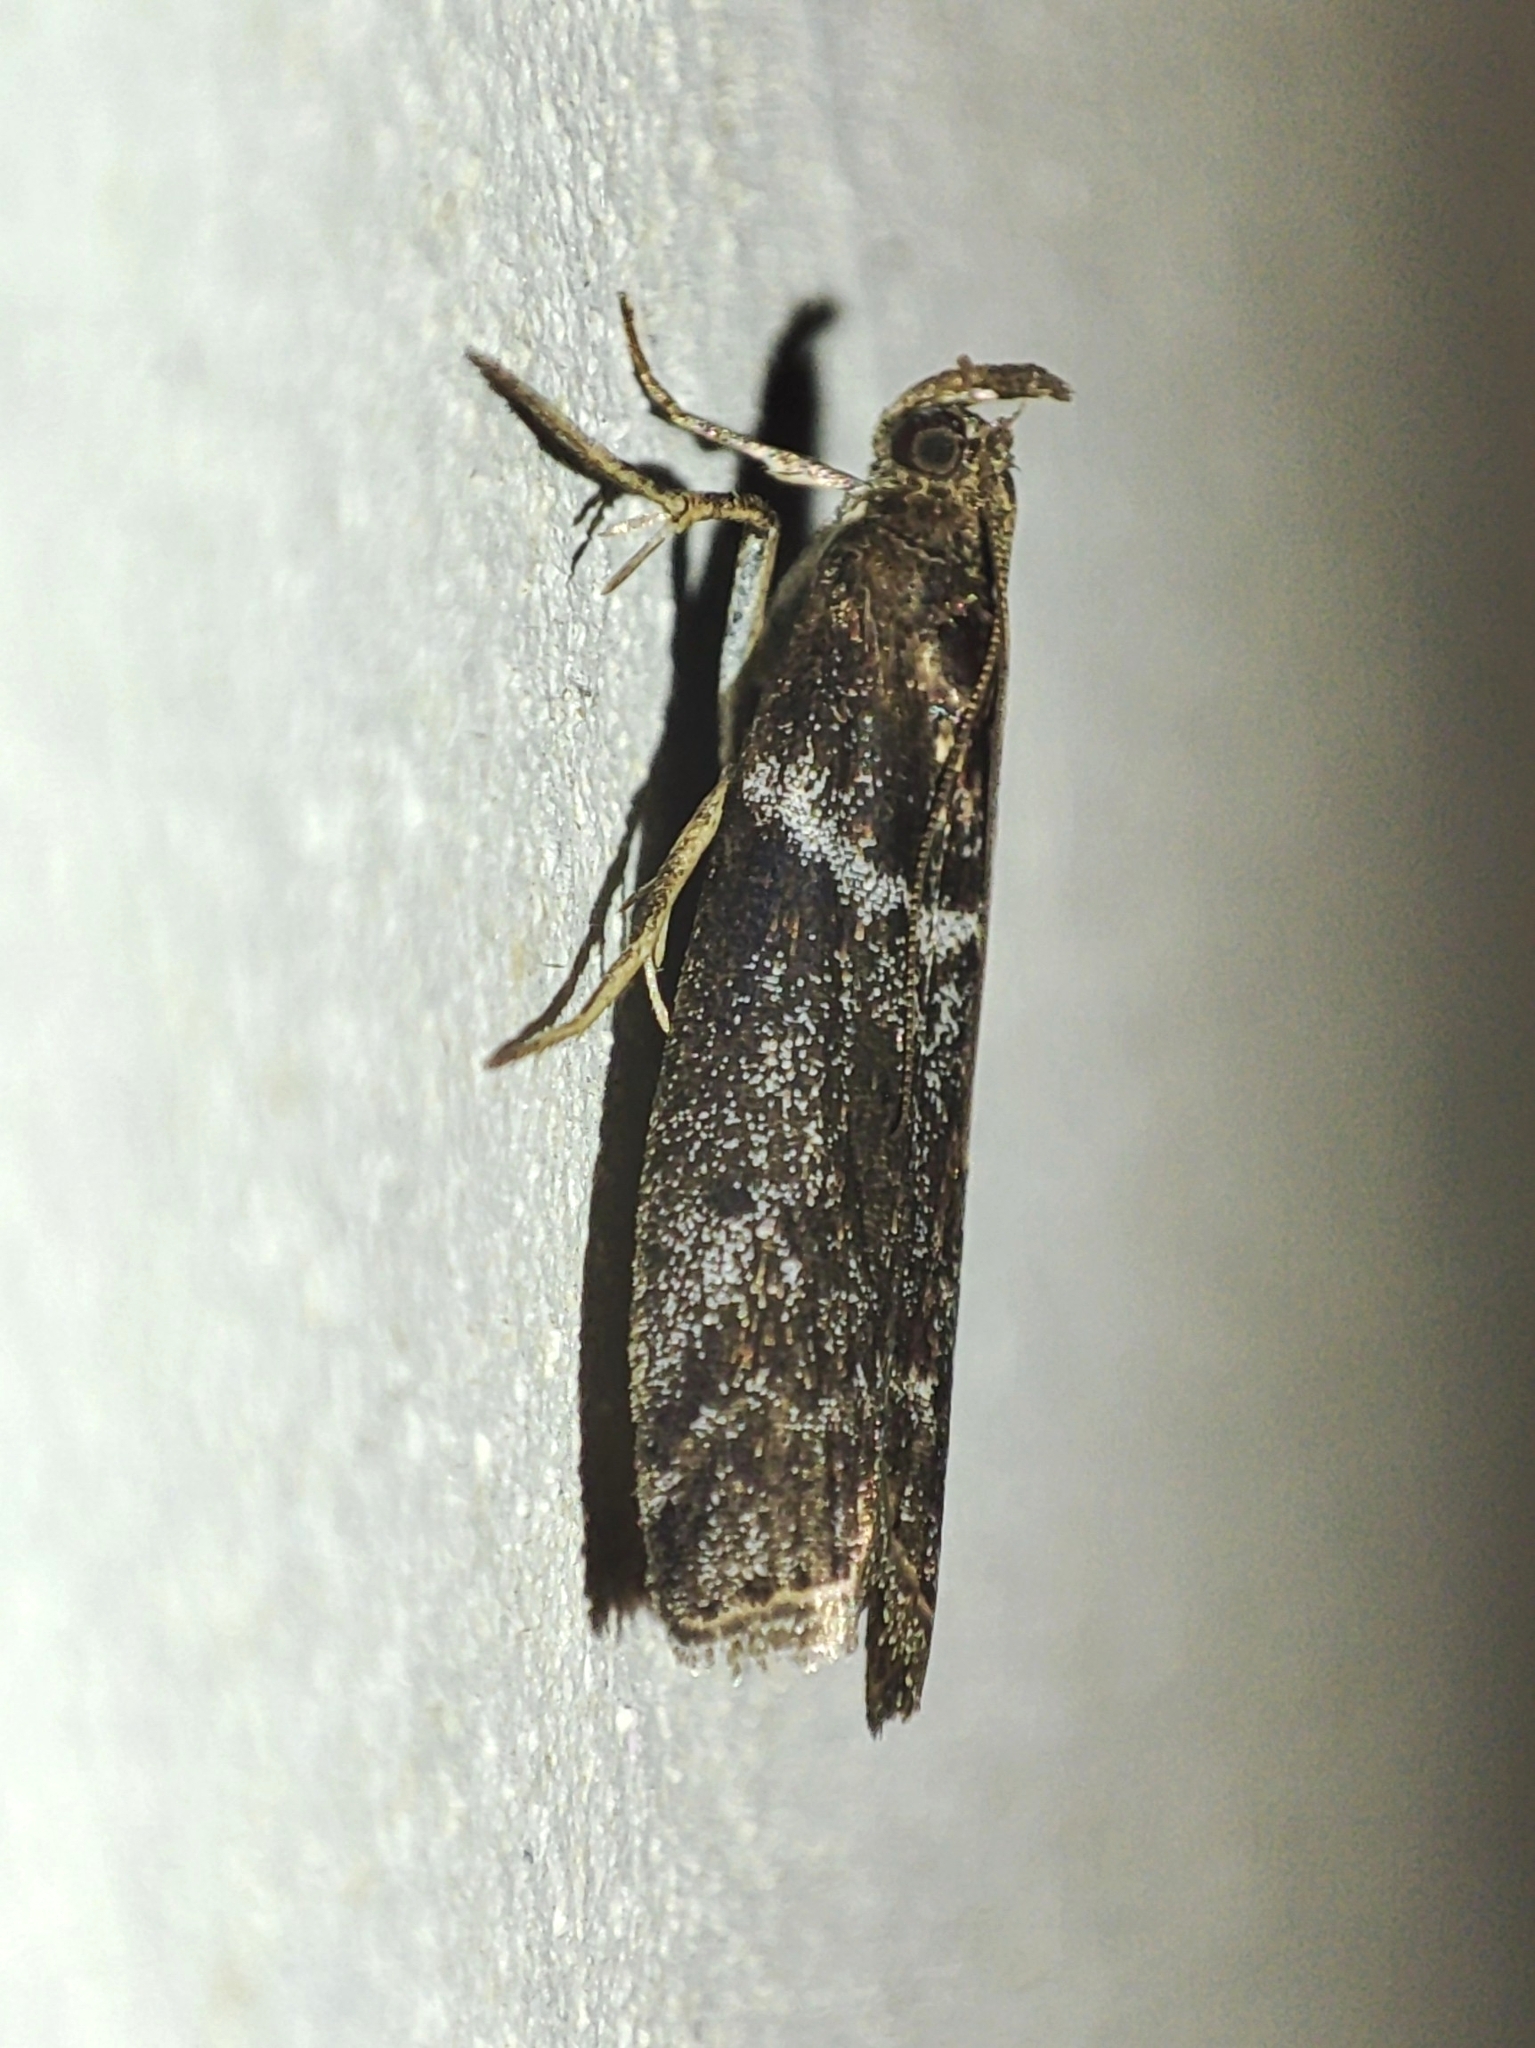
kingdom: Animalia
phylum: Arthropoda
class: Insecta
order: Lepidoptera
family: Pyralidae
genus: Oncocera
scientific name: Oncocera Laodamia faecella
